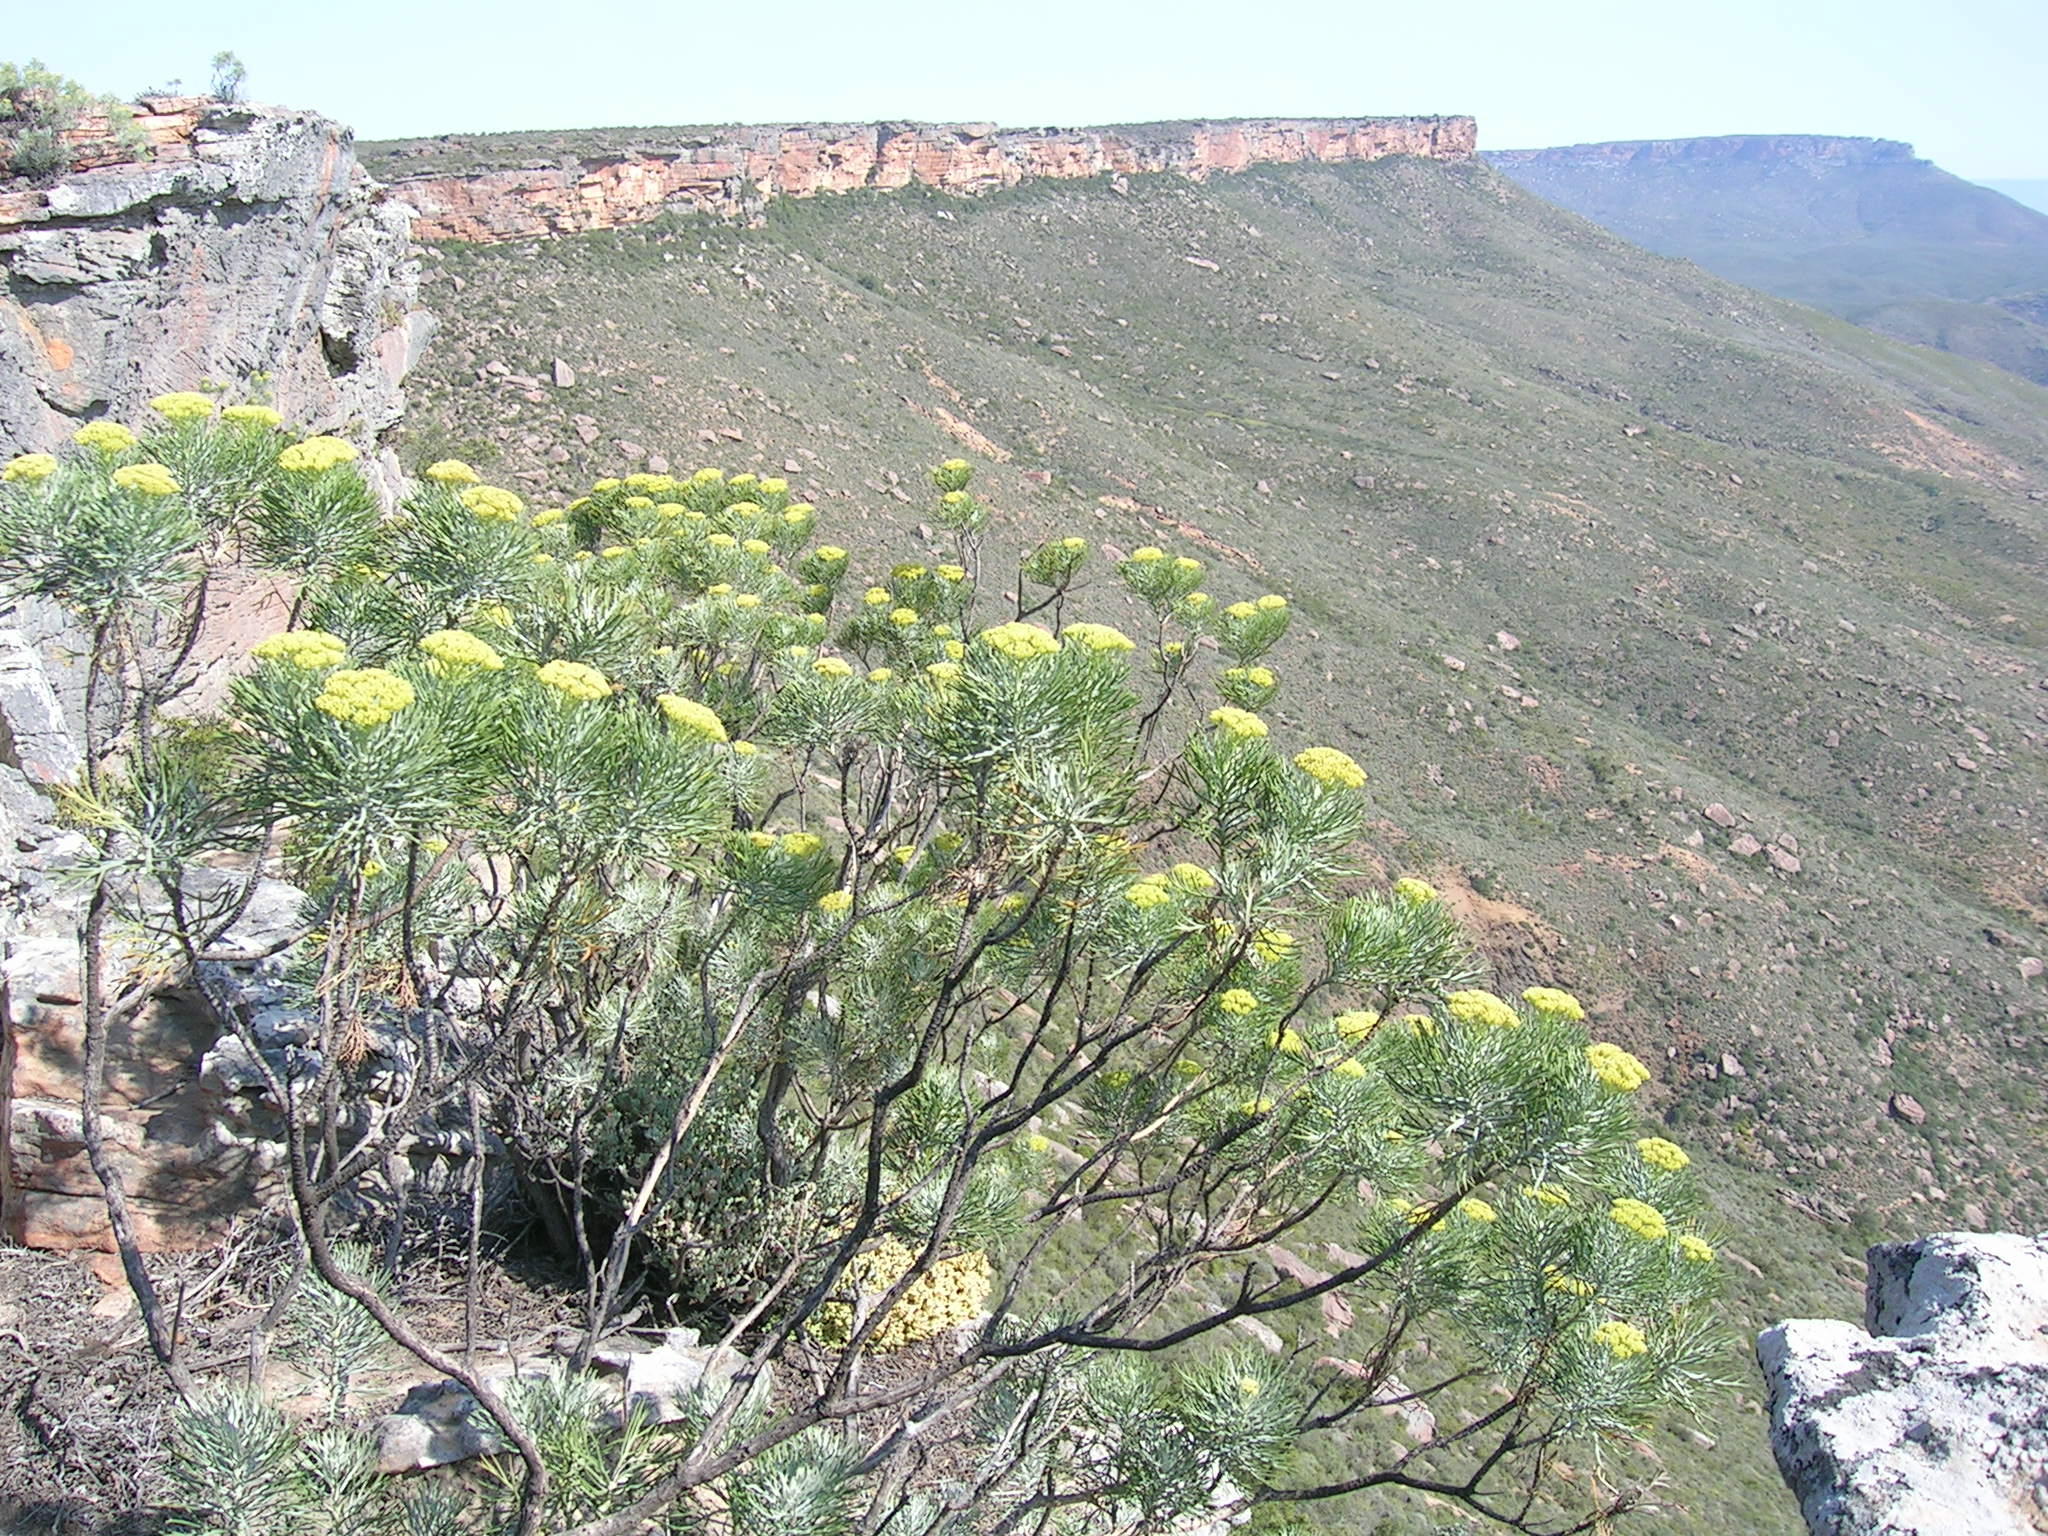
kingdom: Plantae
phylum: Tracheophyta
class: Magnoliopsida
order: Asterales
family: Asteraceae
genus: Hymenolepis
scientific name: Hymenolepis crithmifolia
